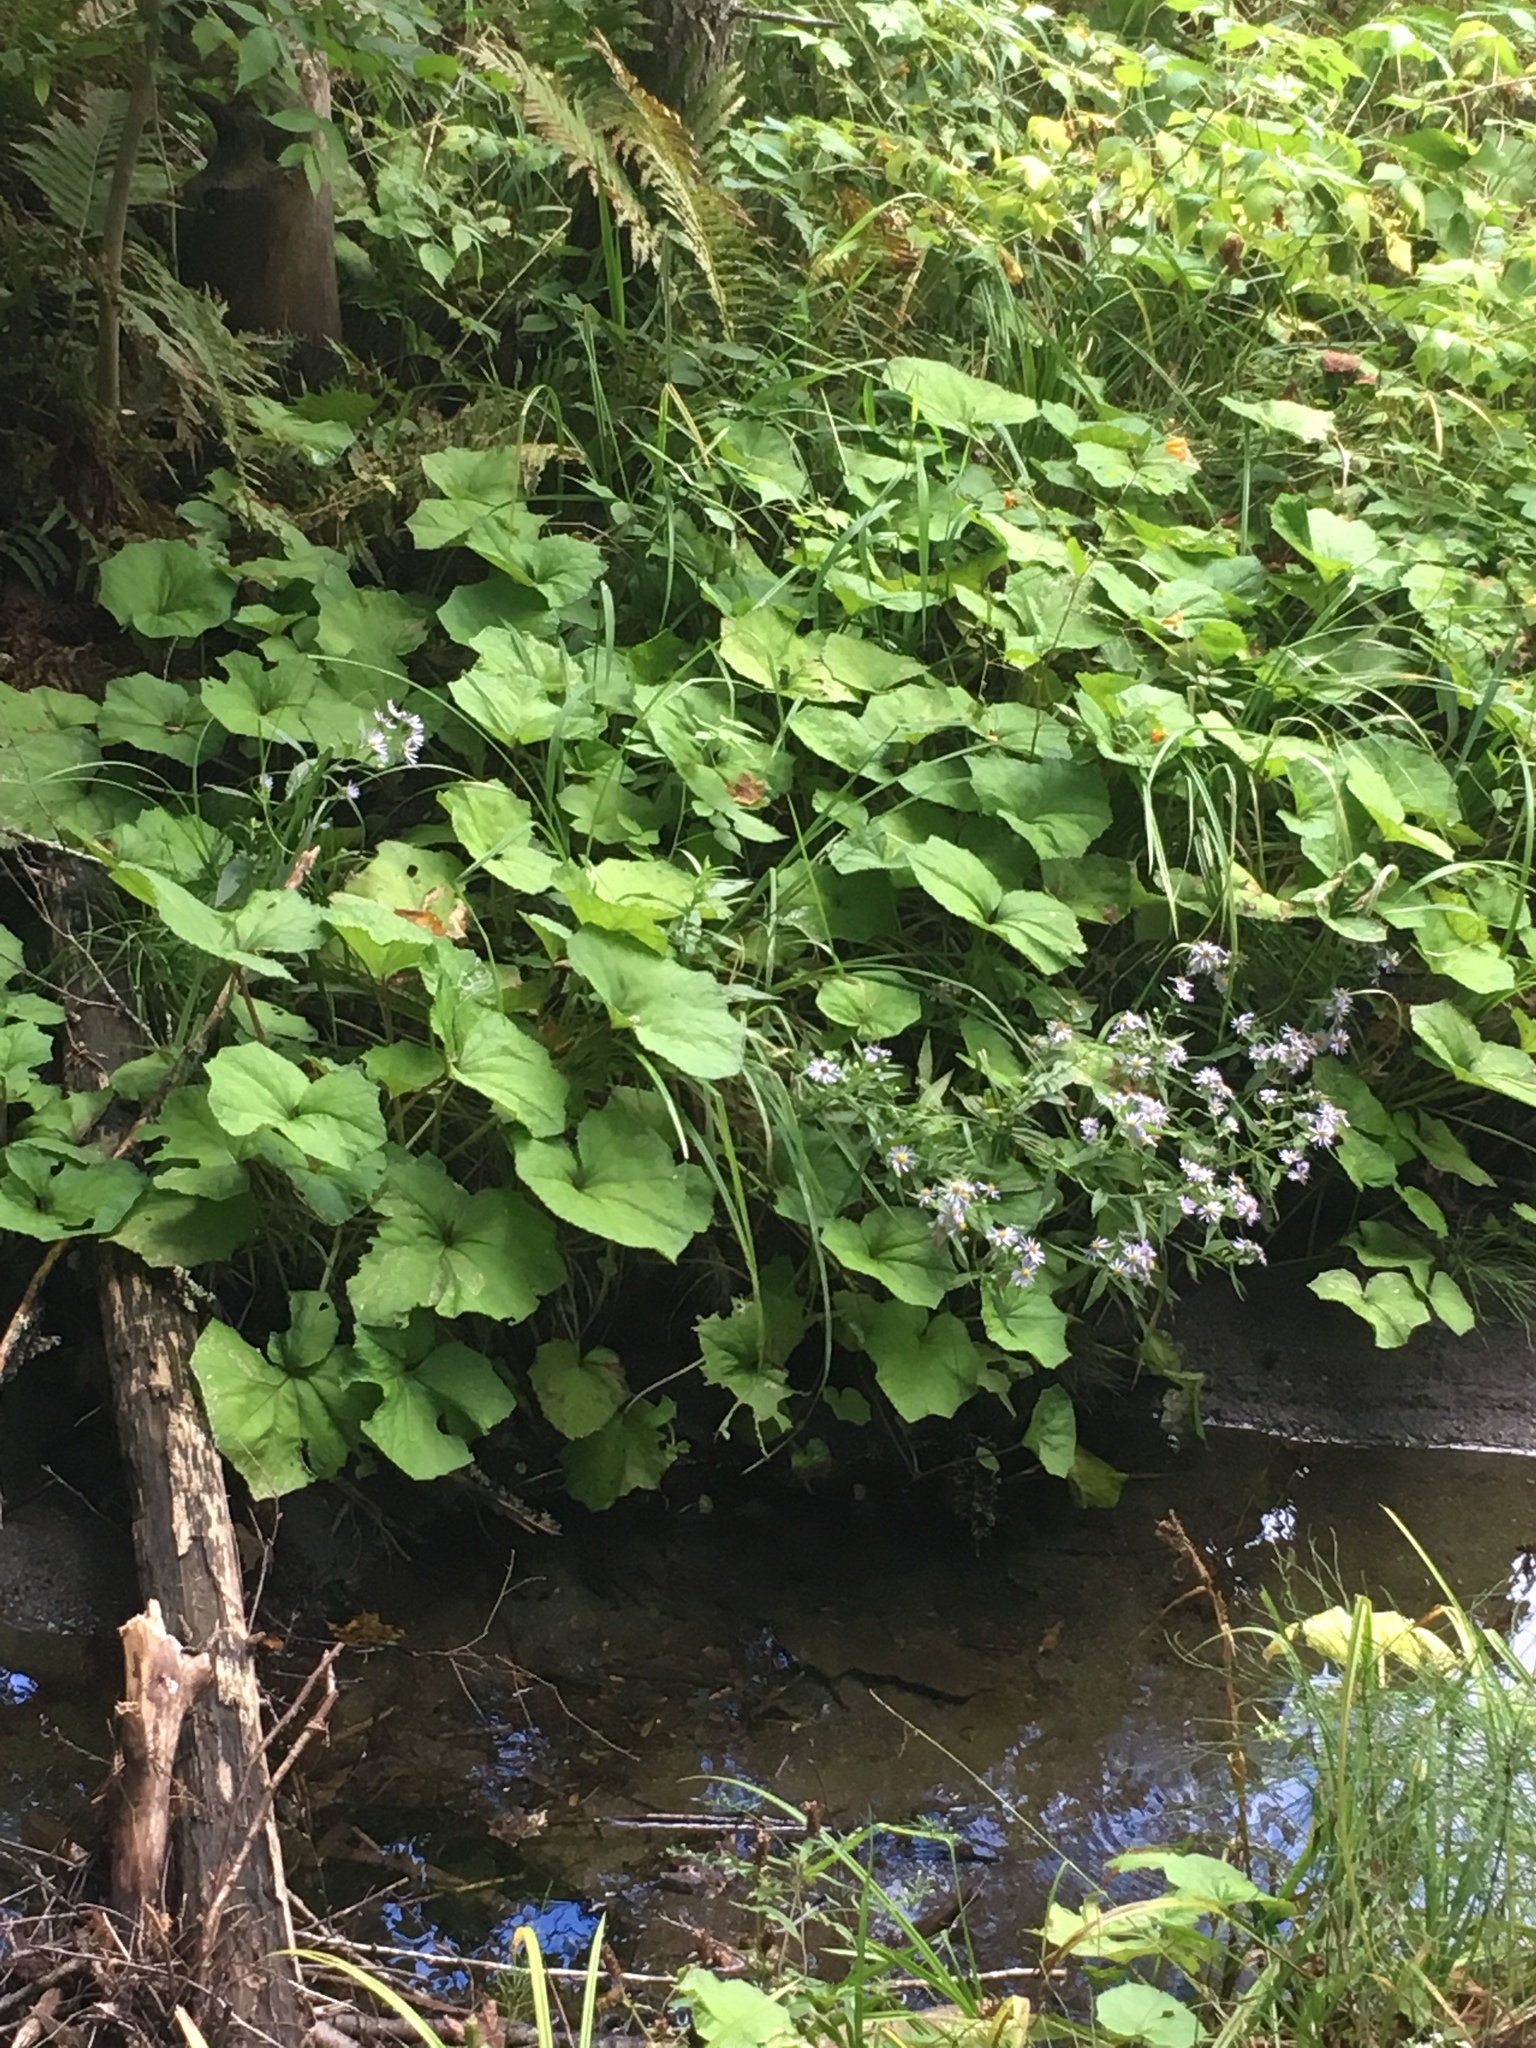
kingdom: Plantae
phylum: Tracheophyta
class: Magnoliopsida
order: Asterales
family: Asteraceae
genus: Tussilago
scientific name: Tussilago farfara
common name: Coltsfoot
